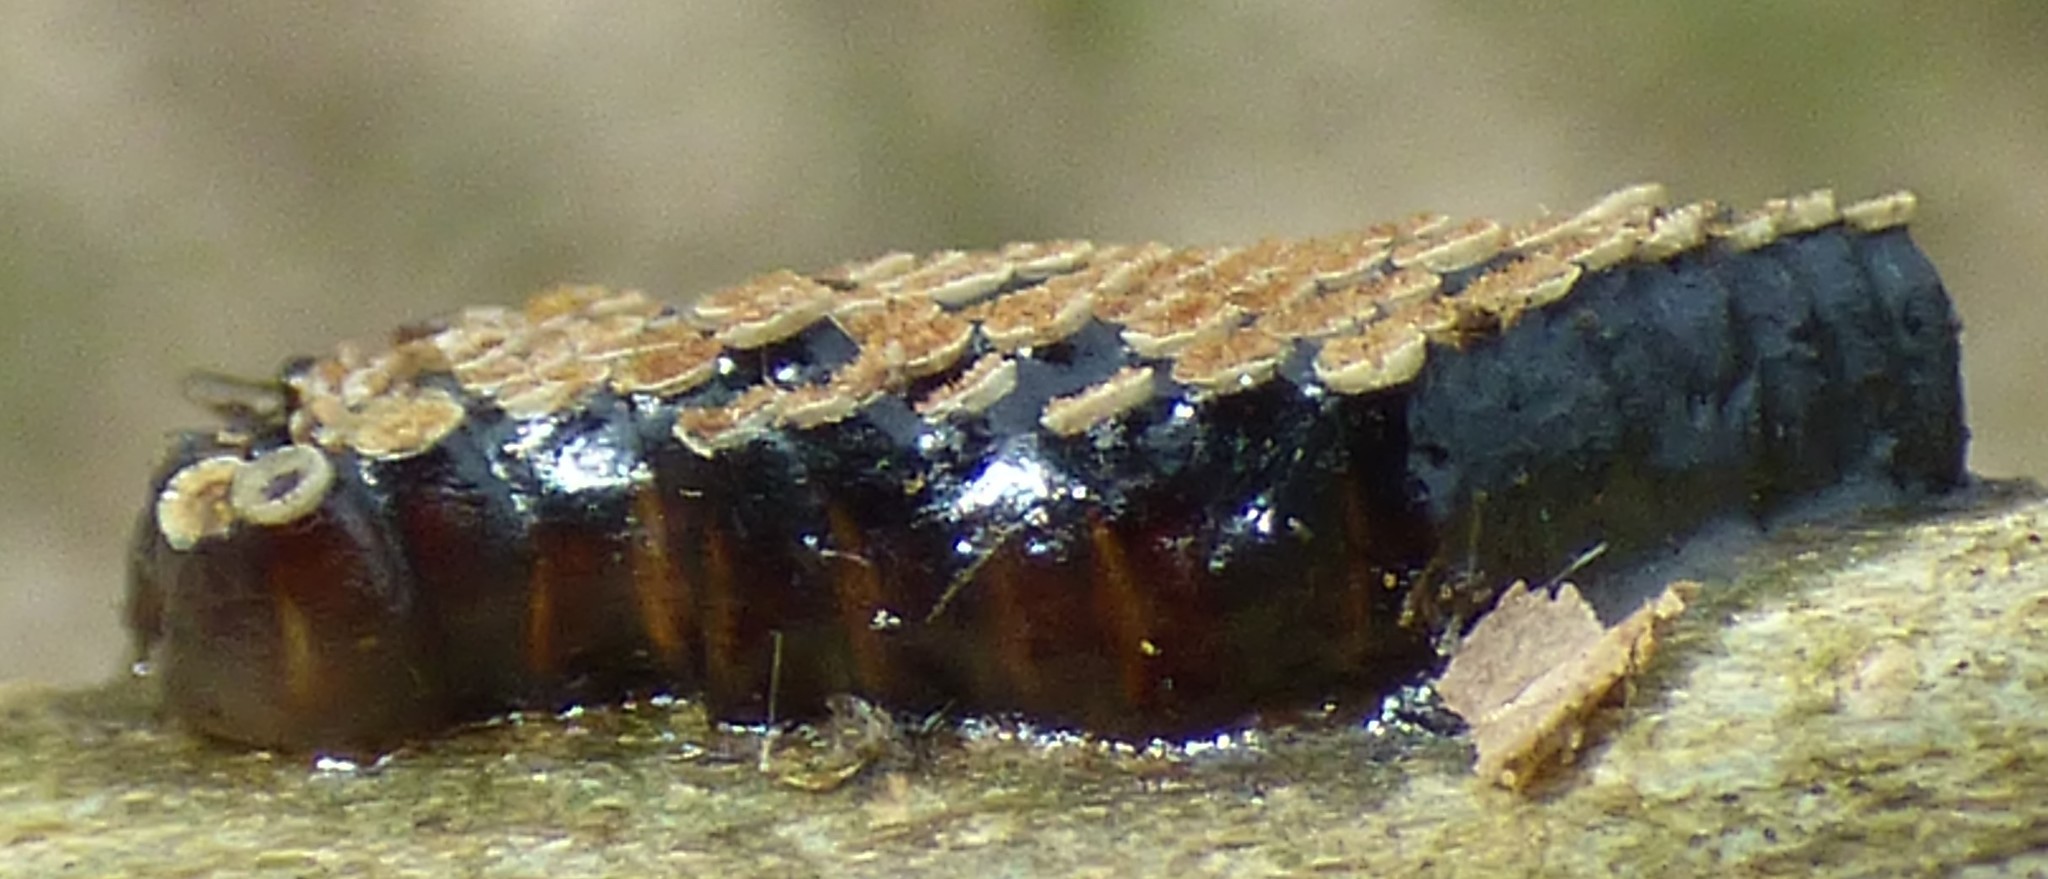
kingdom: Animalia
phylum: Arthropoda
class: Insecta
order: Hemiptera
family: Reduviidae
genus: Arilus
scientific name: Arilus cristatus
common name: North american wheel bug
